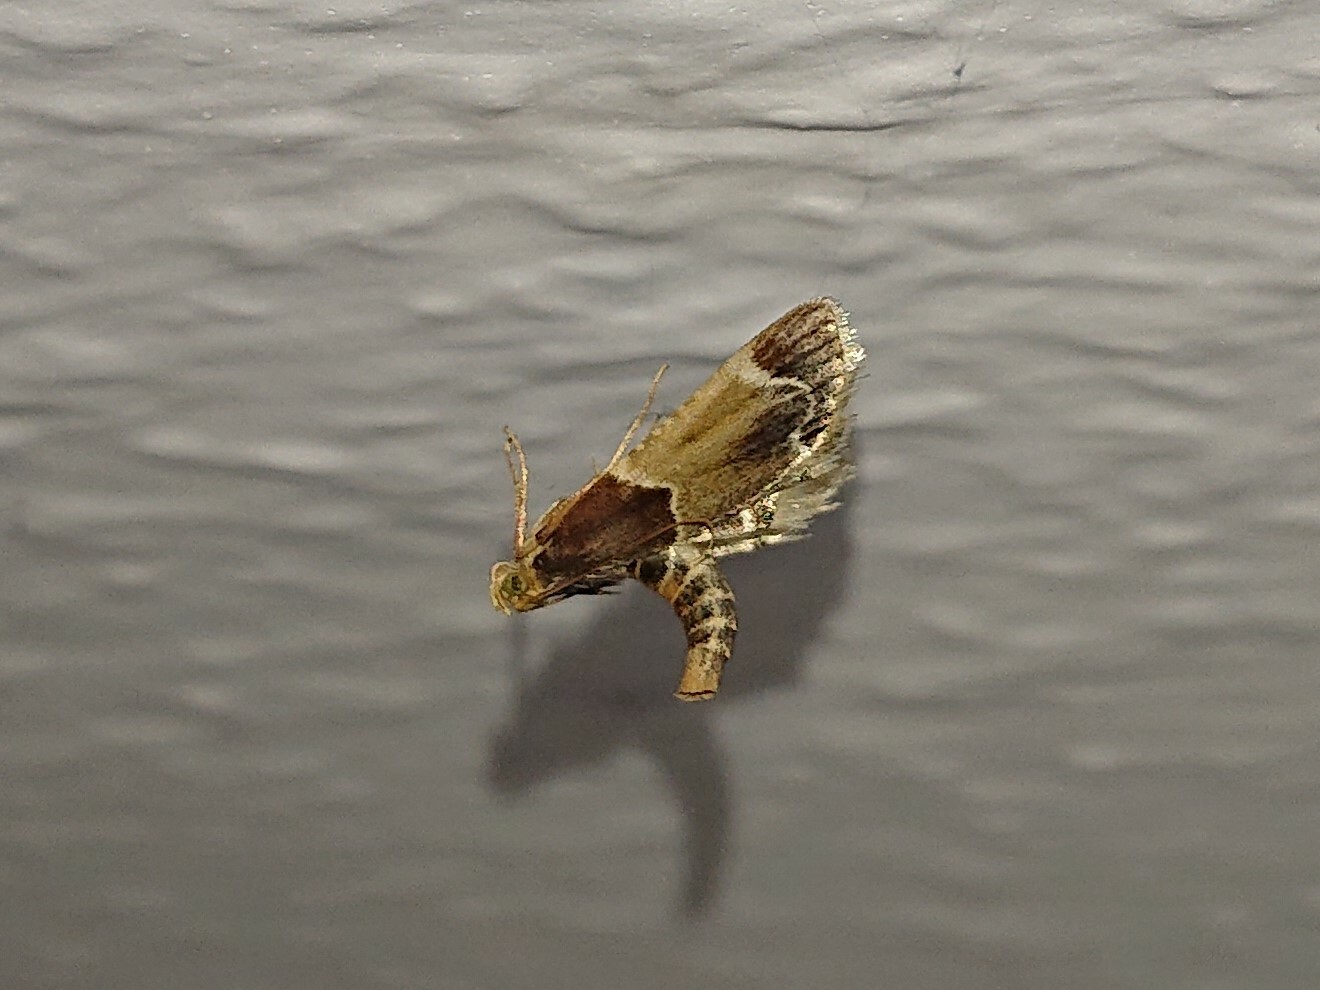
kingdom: Animalia
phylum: Arthropoda
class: Insecta
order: Lepidoptera
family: Pyralidae
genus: Pyralis
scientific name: Pyralis farinalis
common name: Meal moth
